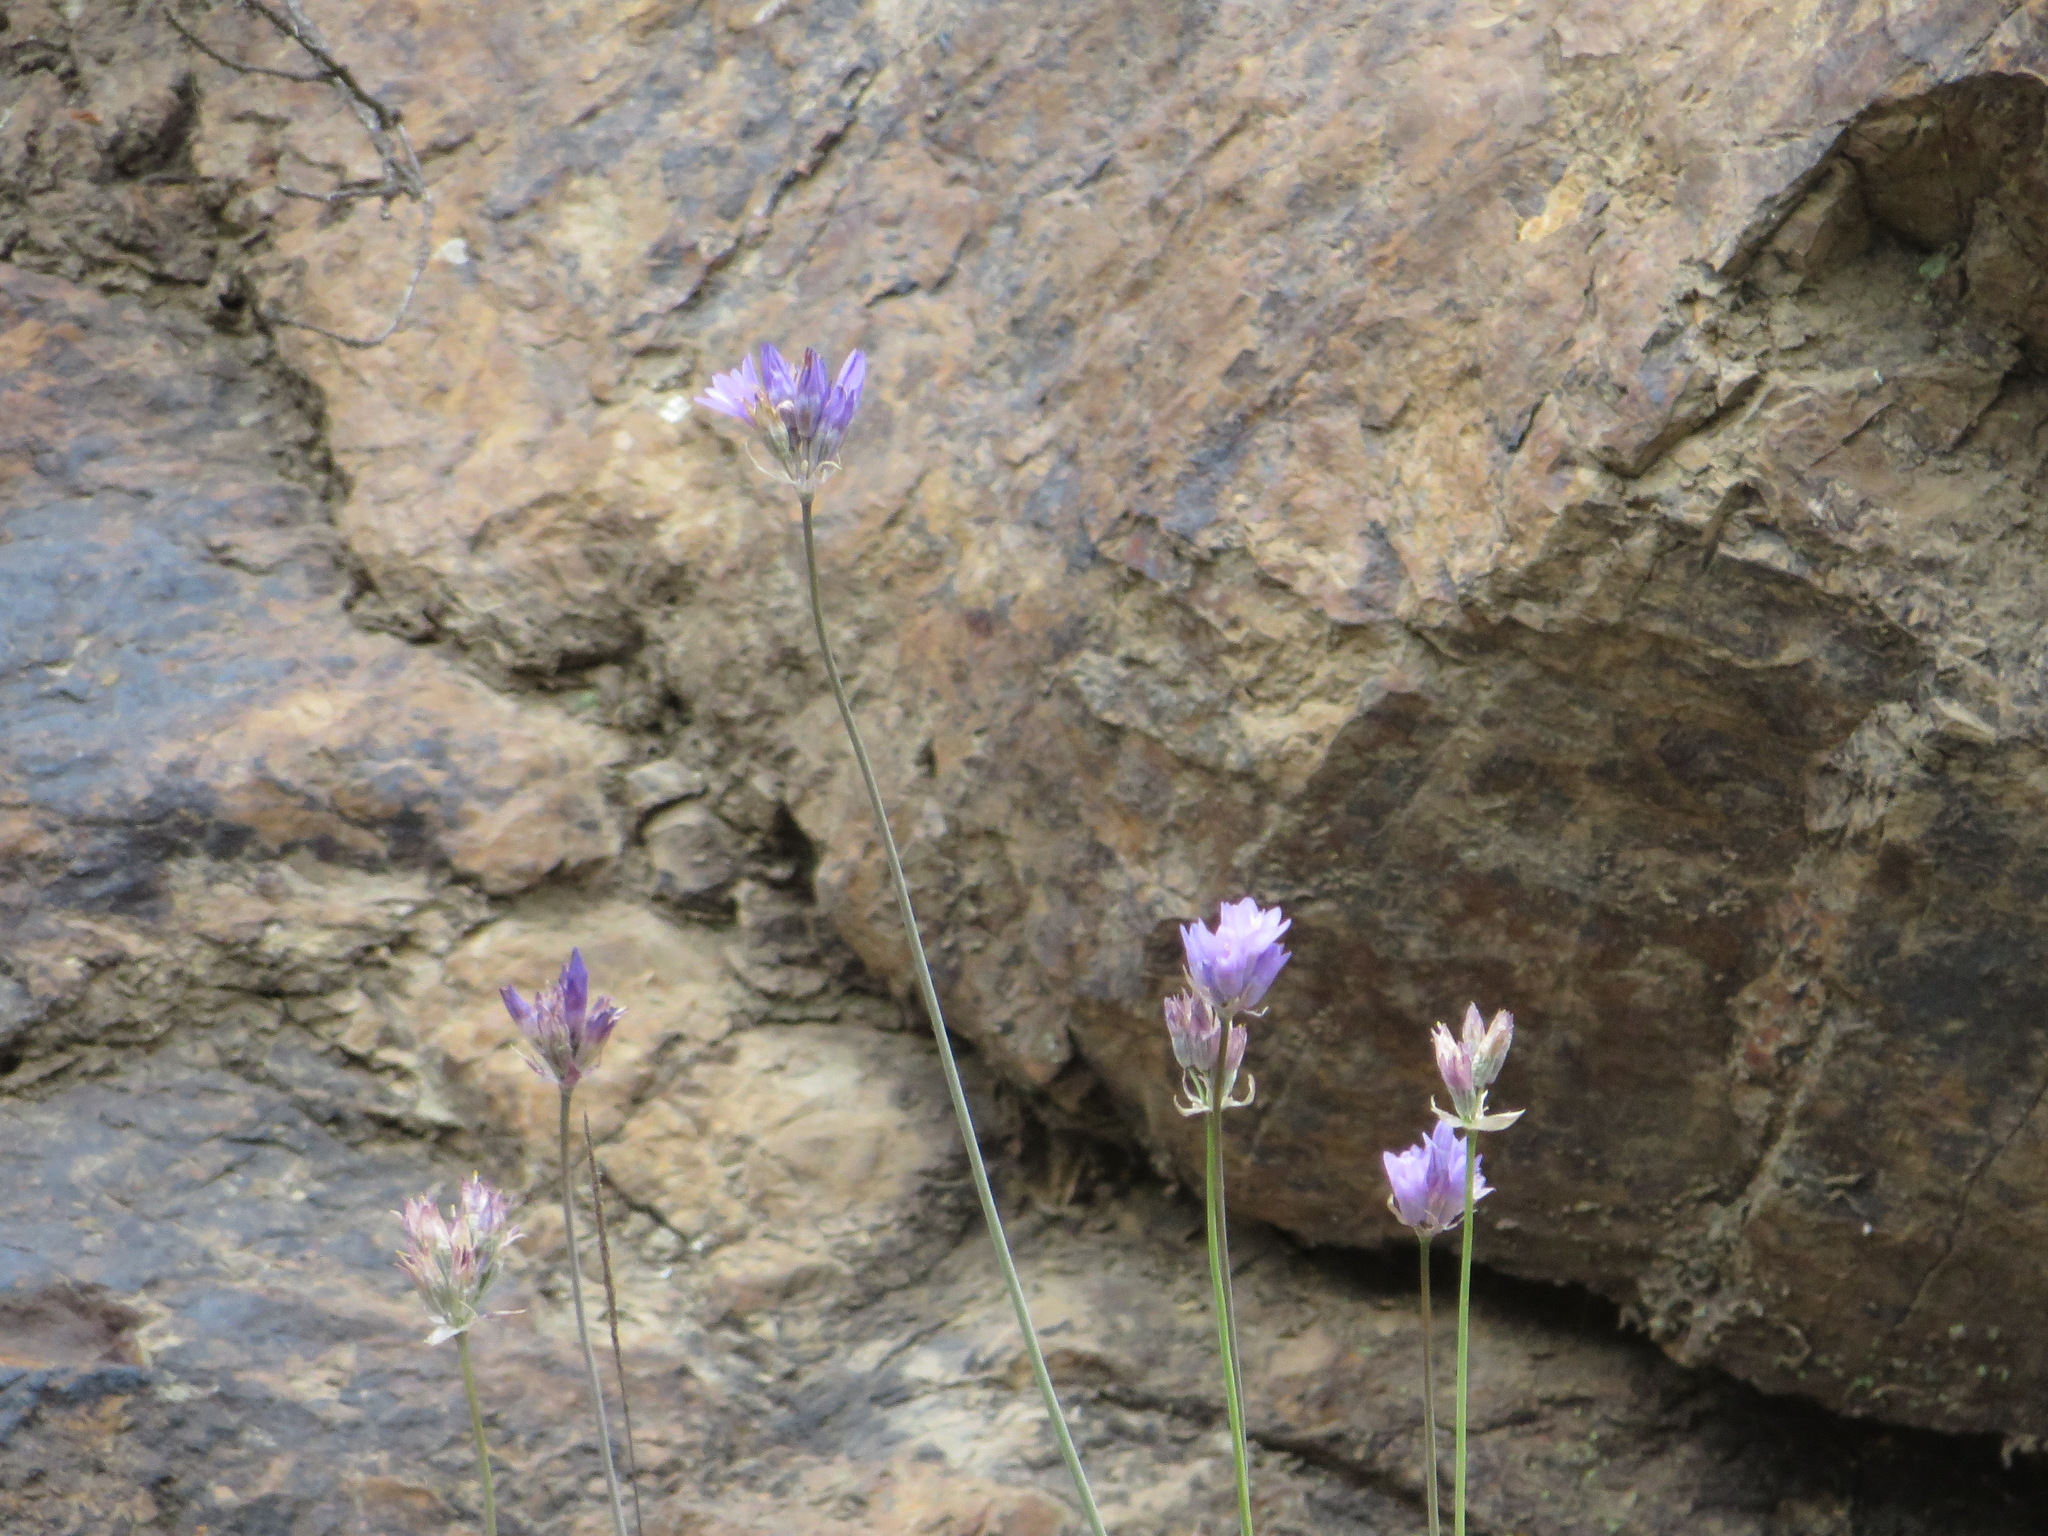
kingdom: Plantae
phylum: Tracheophyta
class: Liliopsida
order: Asparagales
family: Asparagaceae
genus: Dipterostemon
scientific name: Dipterostemon capitatus
